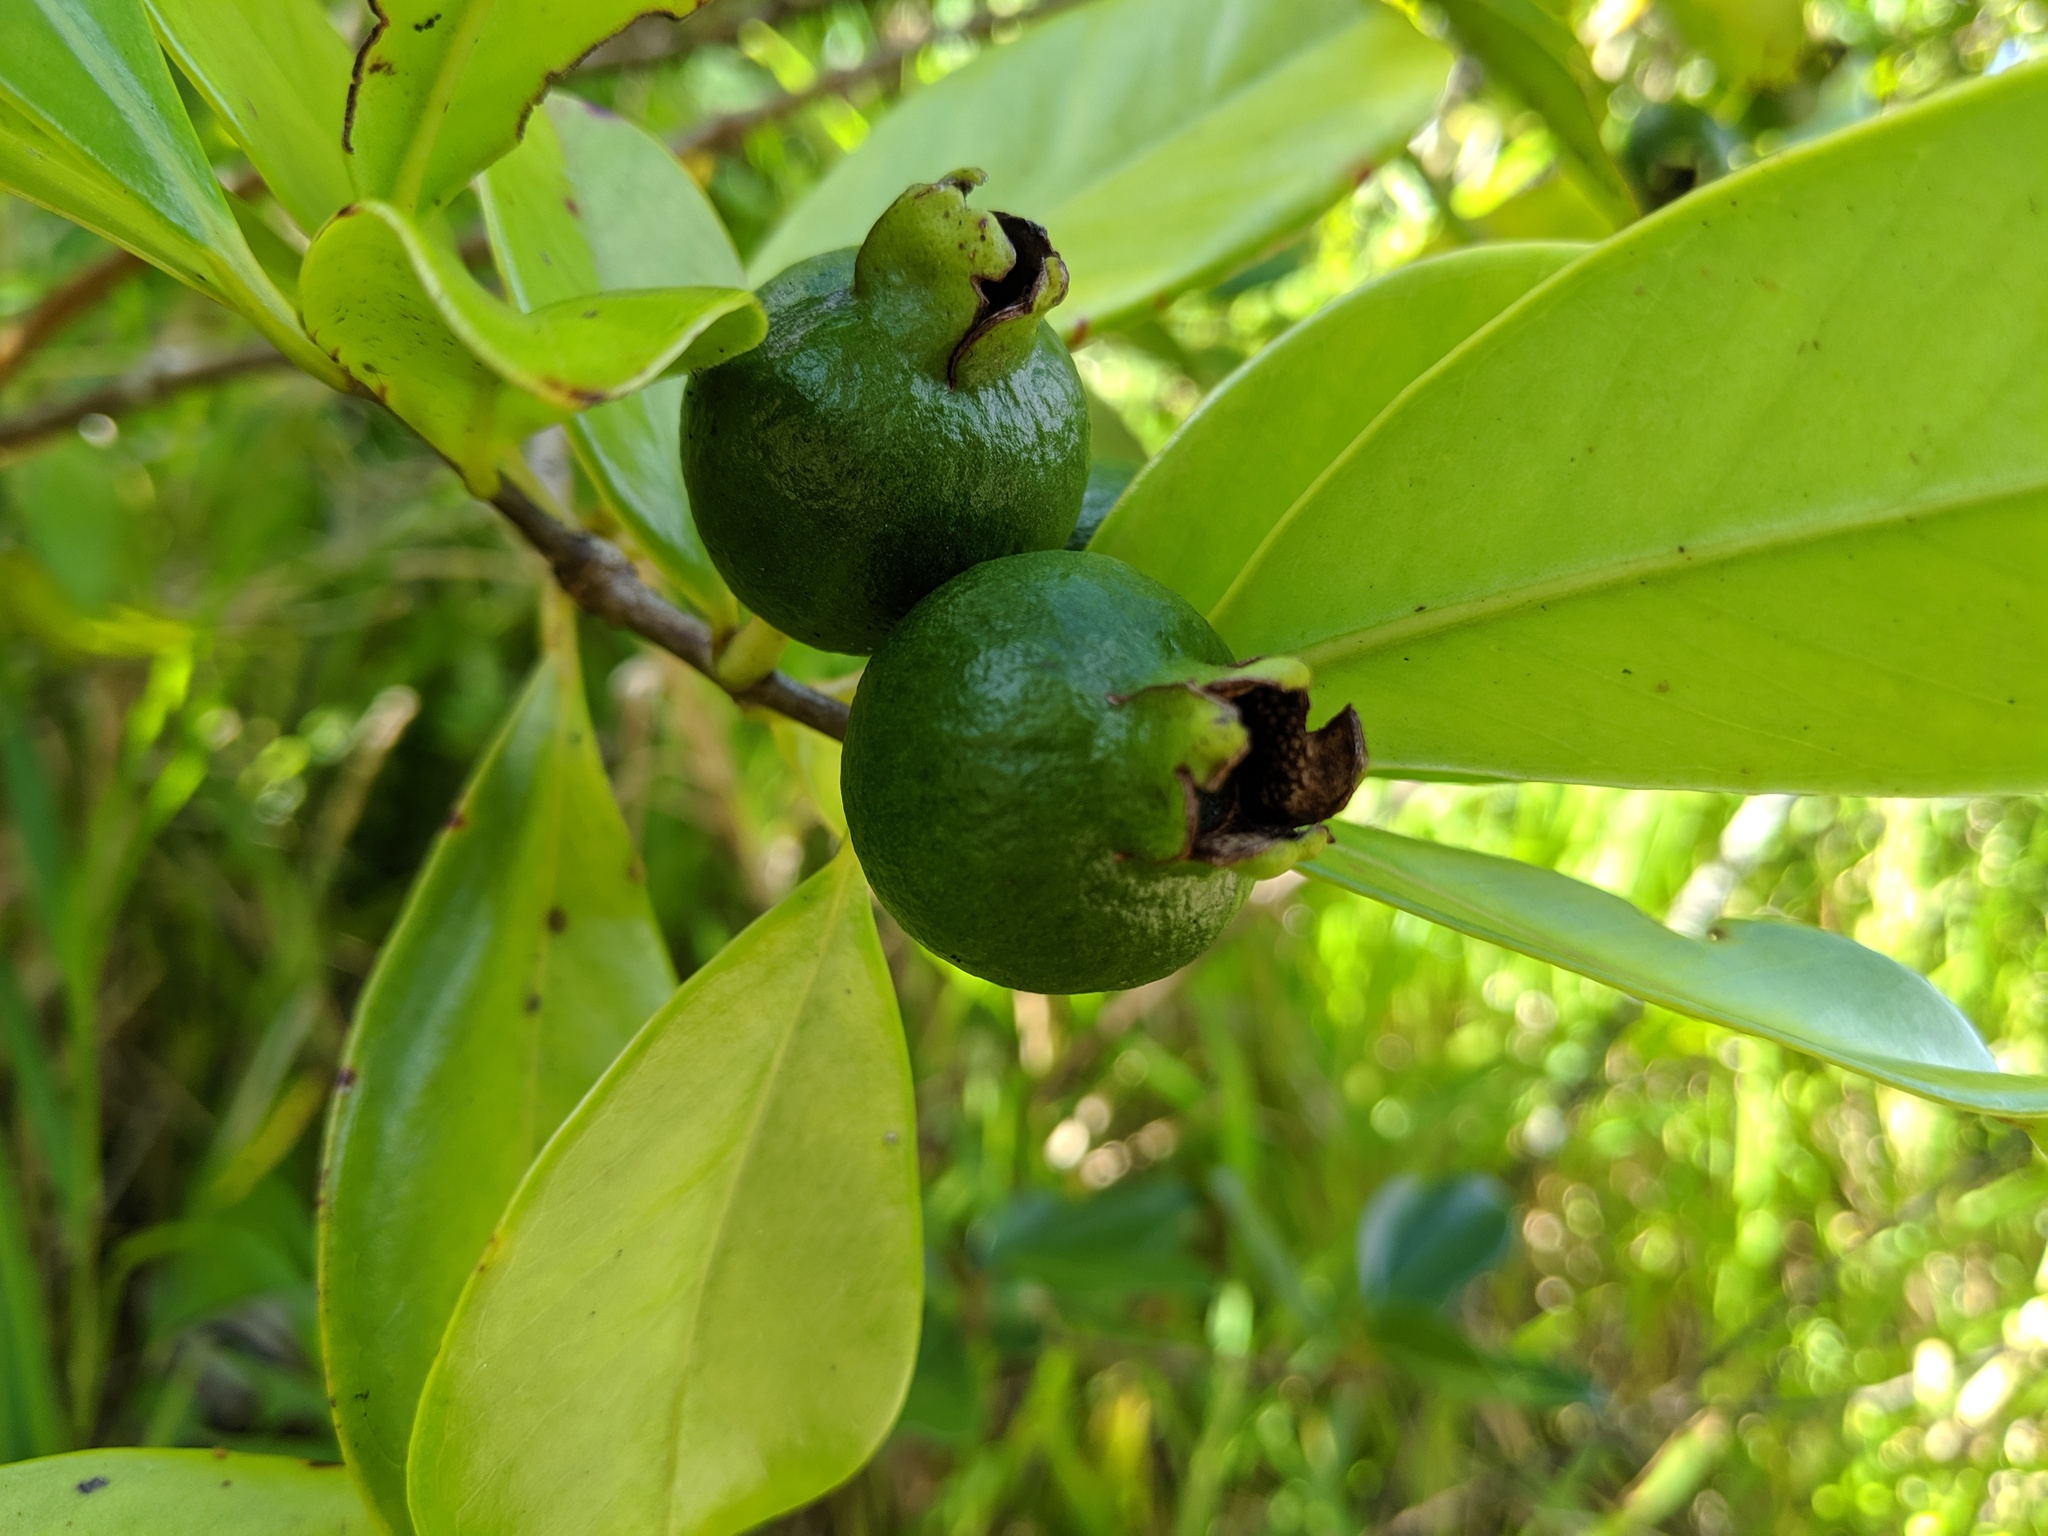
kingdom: Plantae
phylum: Tracheophyta
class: Magnoliopsida
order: Myrtales
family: Myrtaceae
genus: Psidium
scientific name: Psidium cattleianum
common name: Strawberry guava
